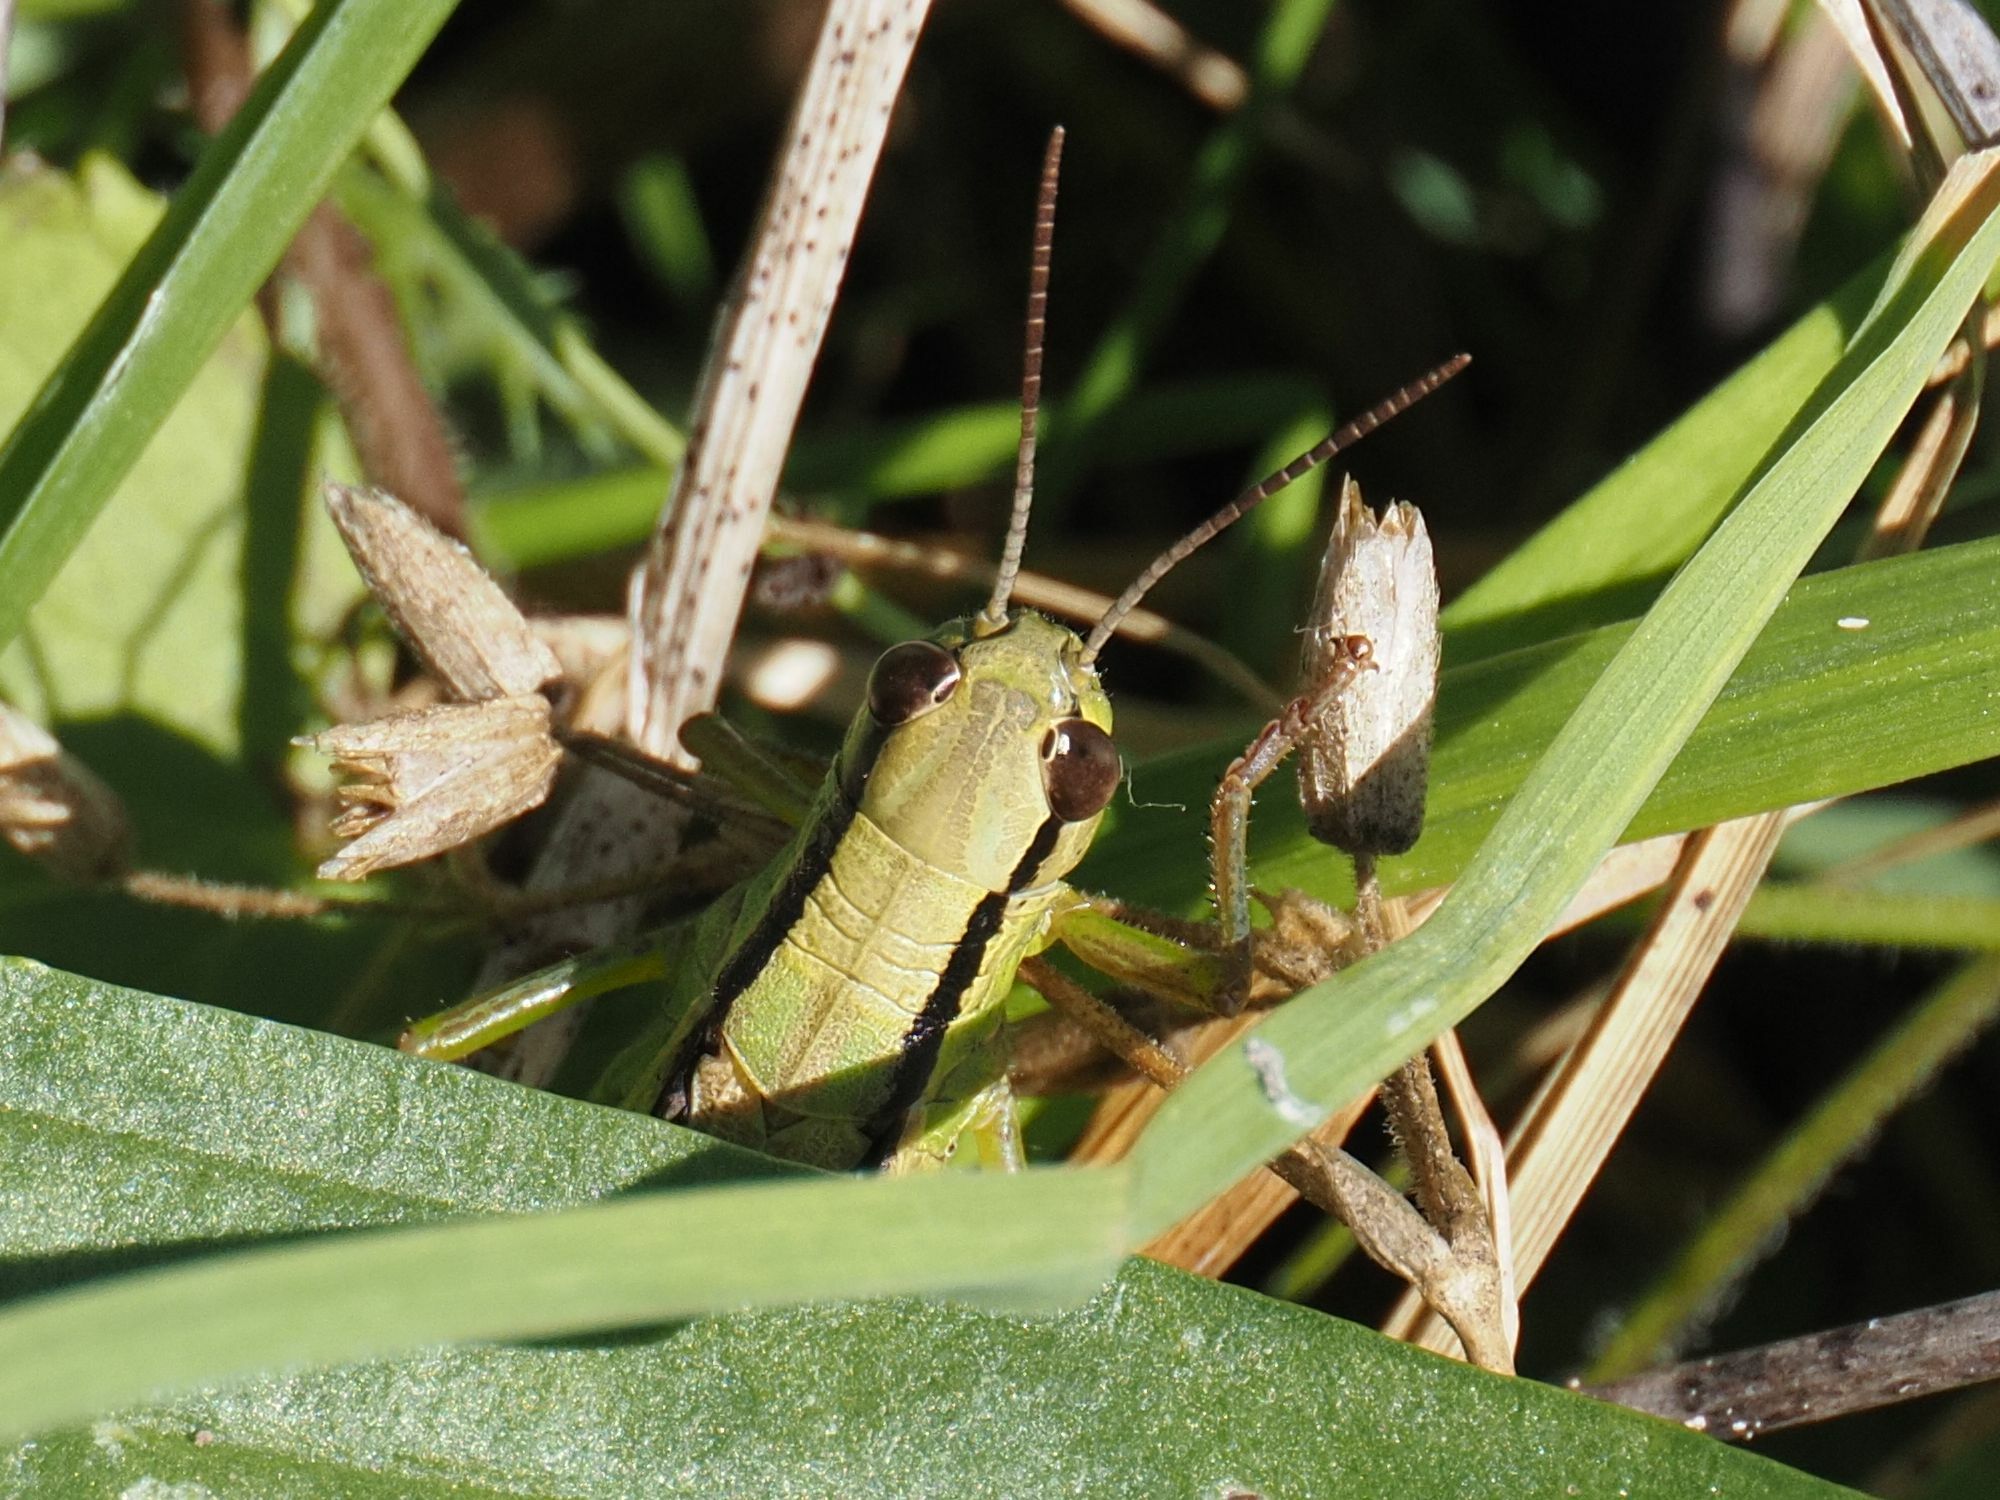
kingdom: Animalia
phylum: Arthropoda
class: Insecta
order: Orthoptera
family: Acrididae
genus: Mecostethus
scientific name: Mecostethus parapleurus
